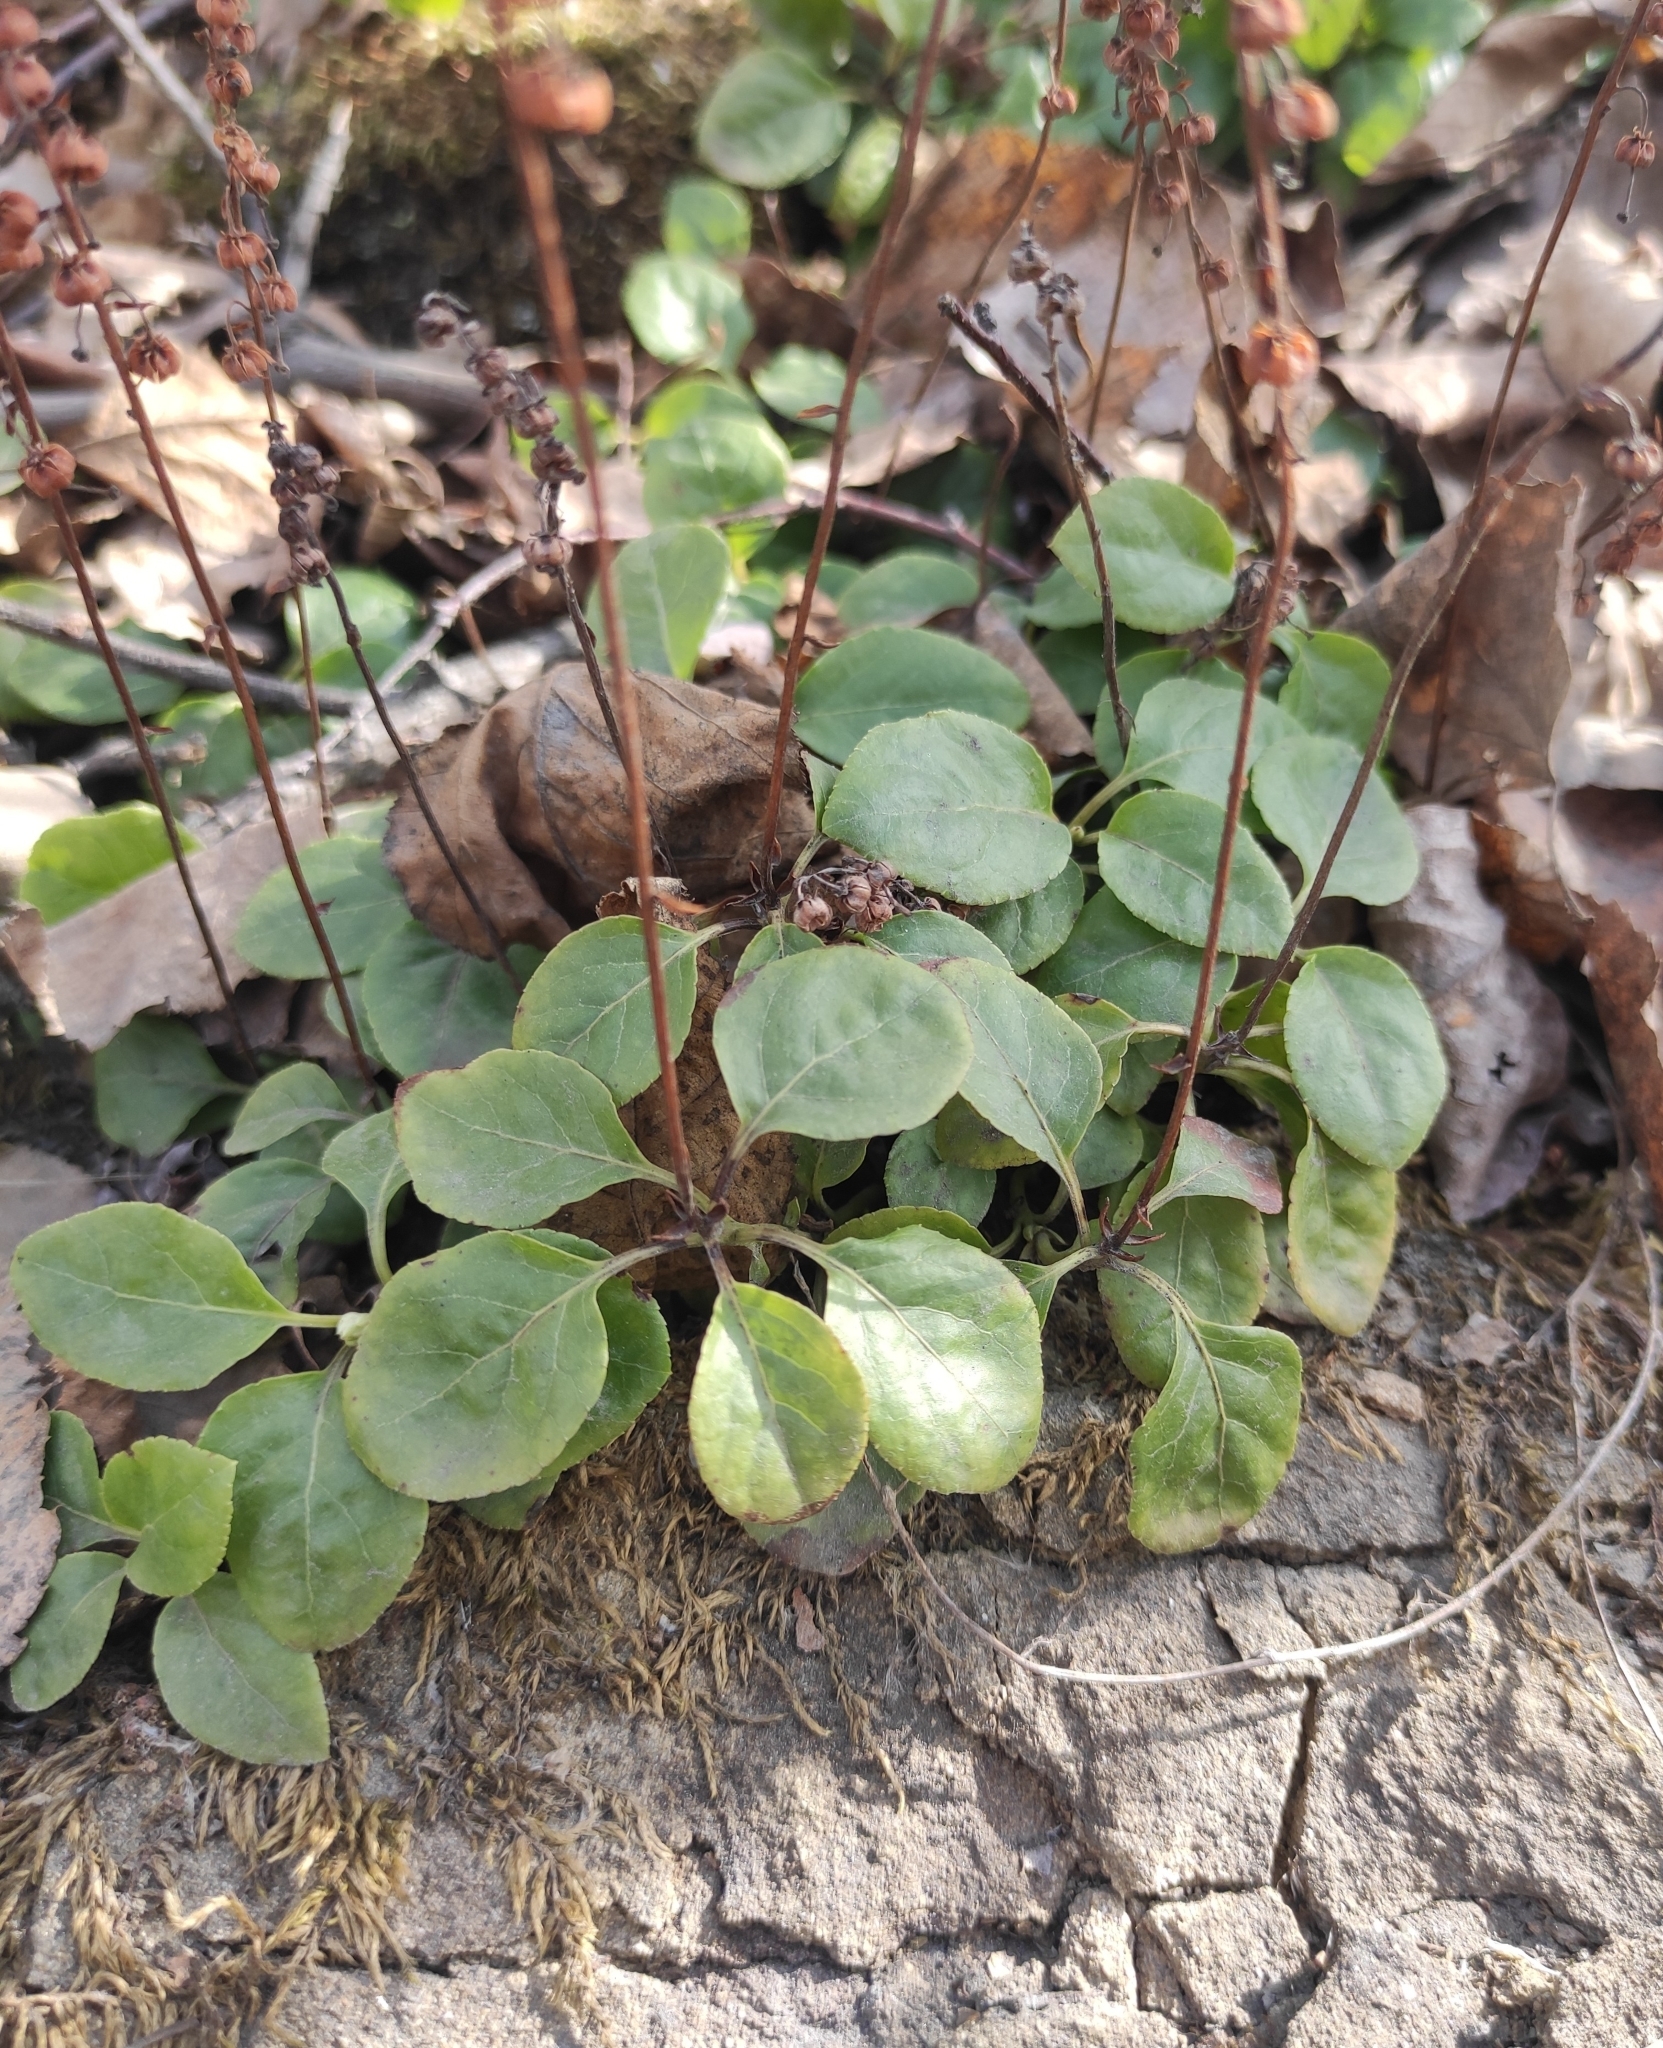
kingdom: Plantae
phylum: Tracheophyta
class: Magnoliopsida
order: Ericales
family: Ericaceae
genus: Orthilia
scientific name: Orthilia secunda
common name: One-sided orthilia
